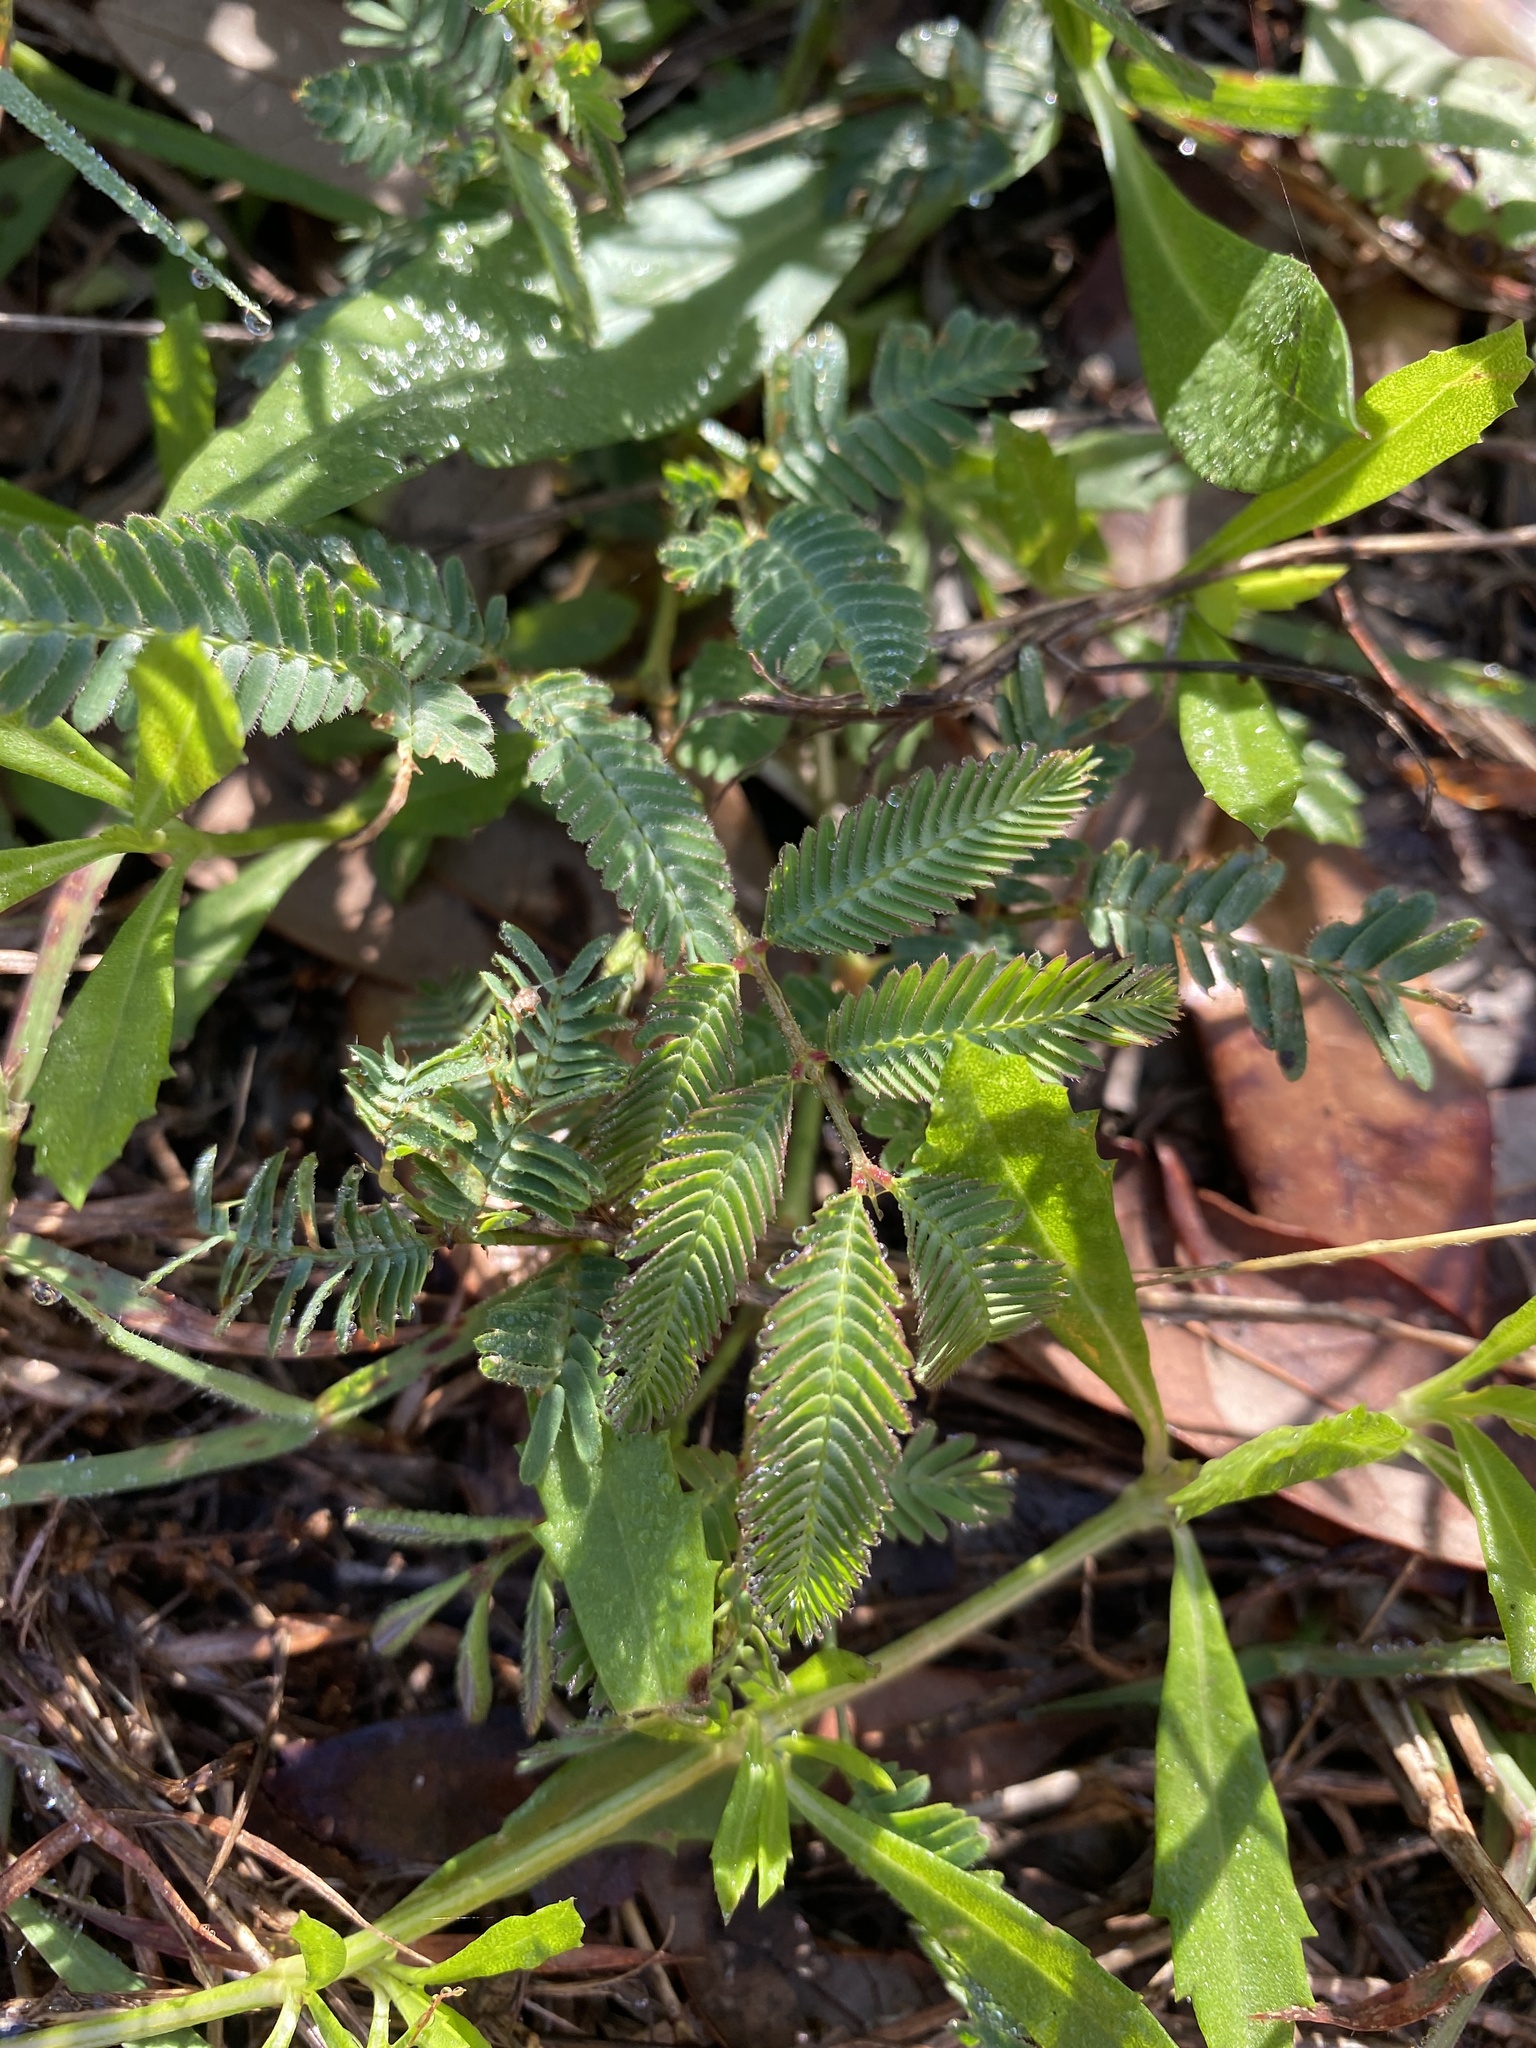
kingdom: Plantae
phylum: Tracheophyta
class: Magnoliopsida
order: Fabales
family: Fabaceae
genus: Neptunia
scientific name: Neptunia pubescens
